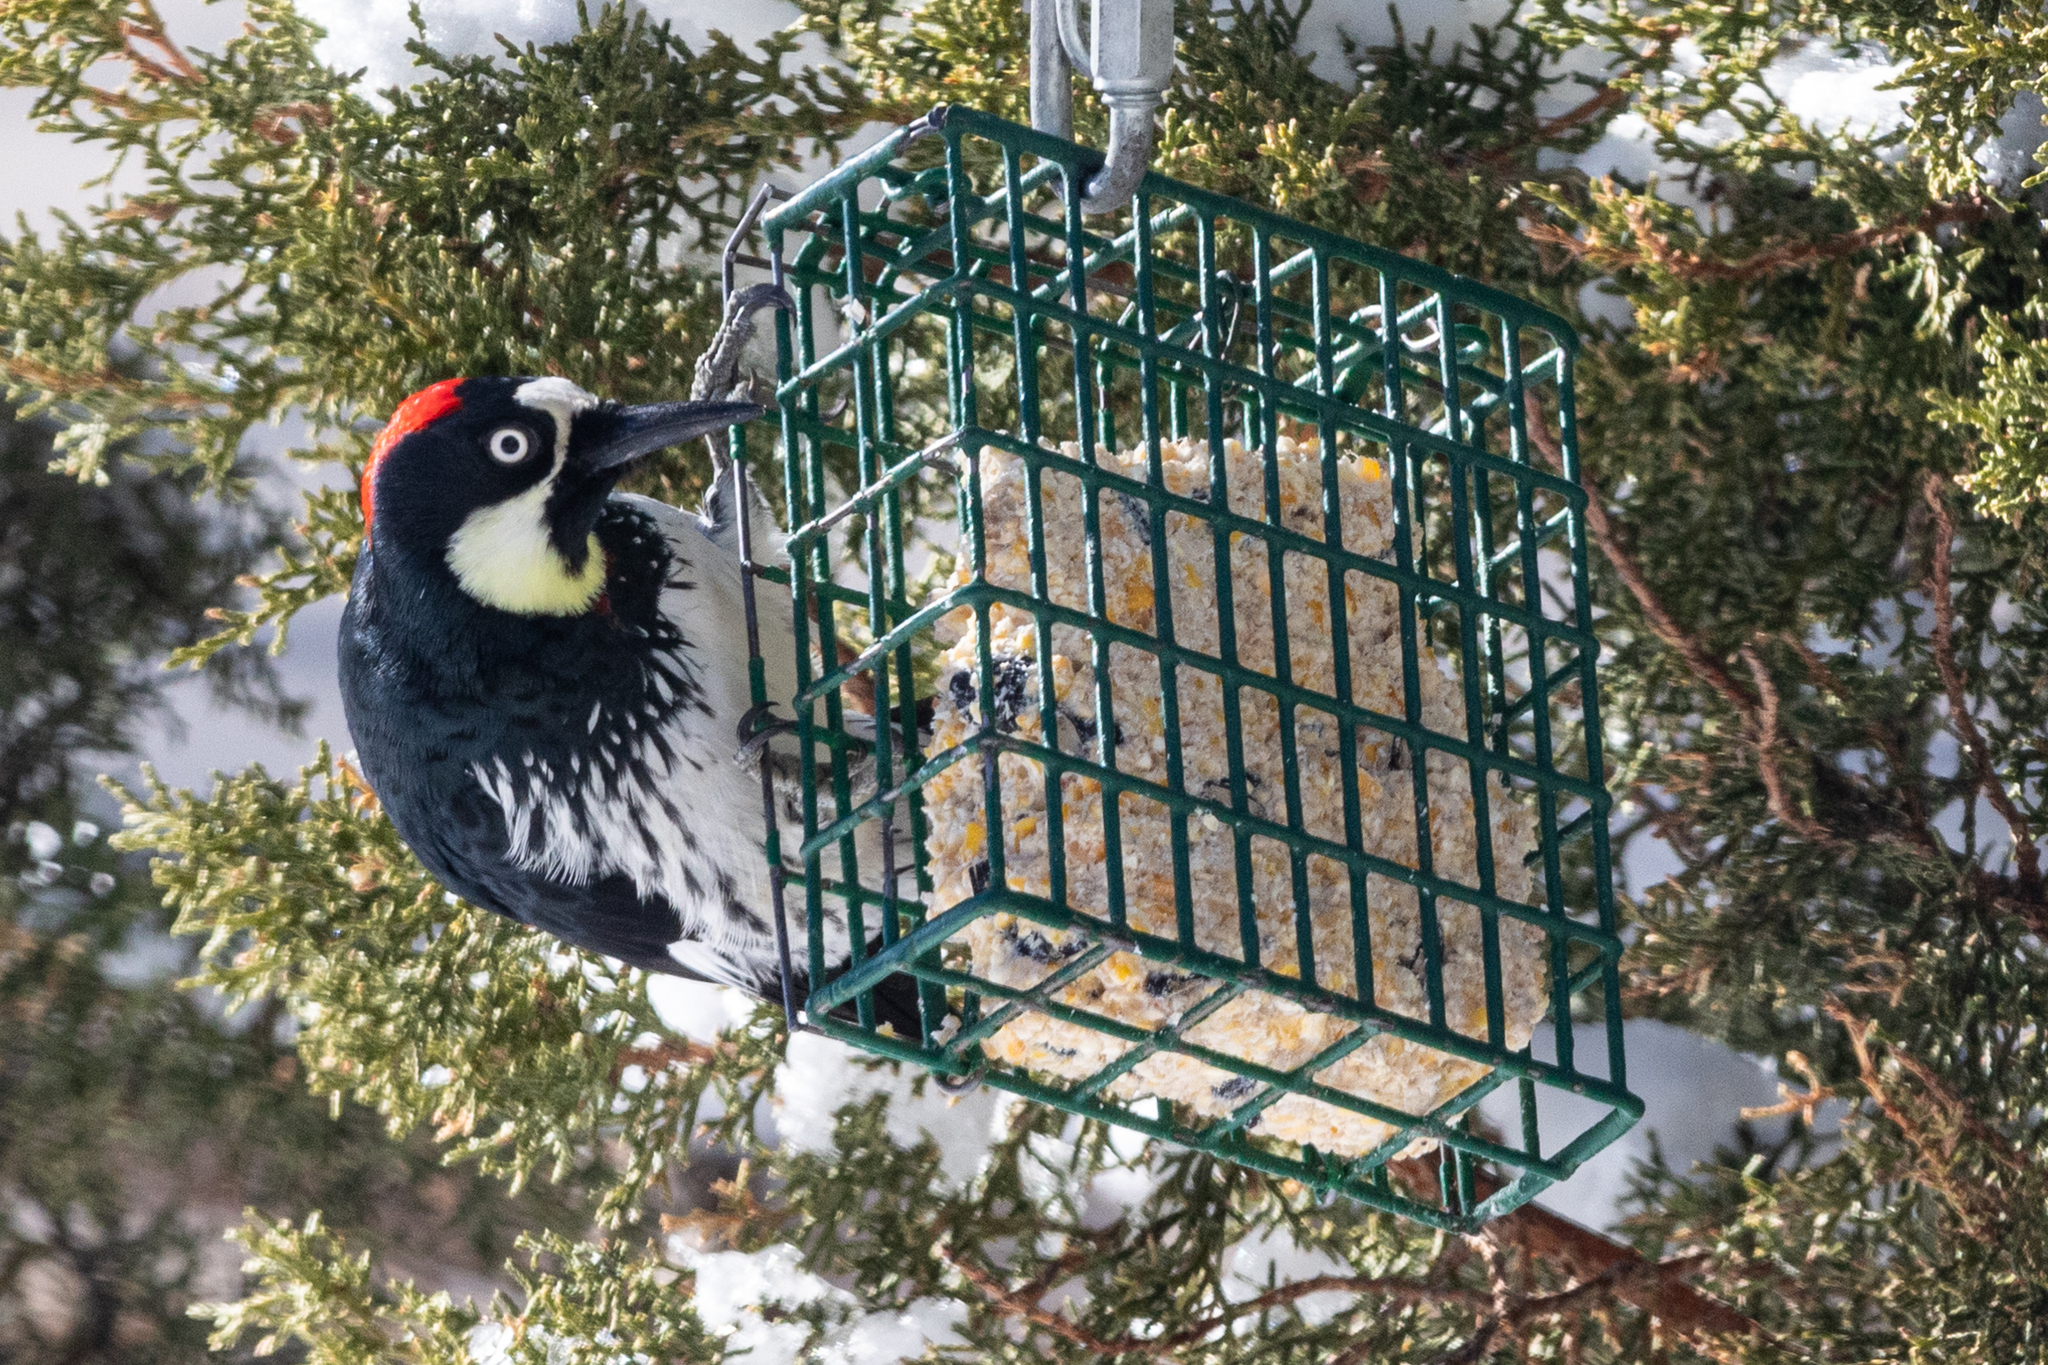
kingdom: Animalia
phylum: Chordata
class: Aves
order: Piciformes
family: Picidae
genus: Melanerpes
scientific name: Melanerpes formicivorus
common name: Acorn woodpecker
